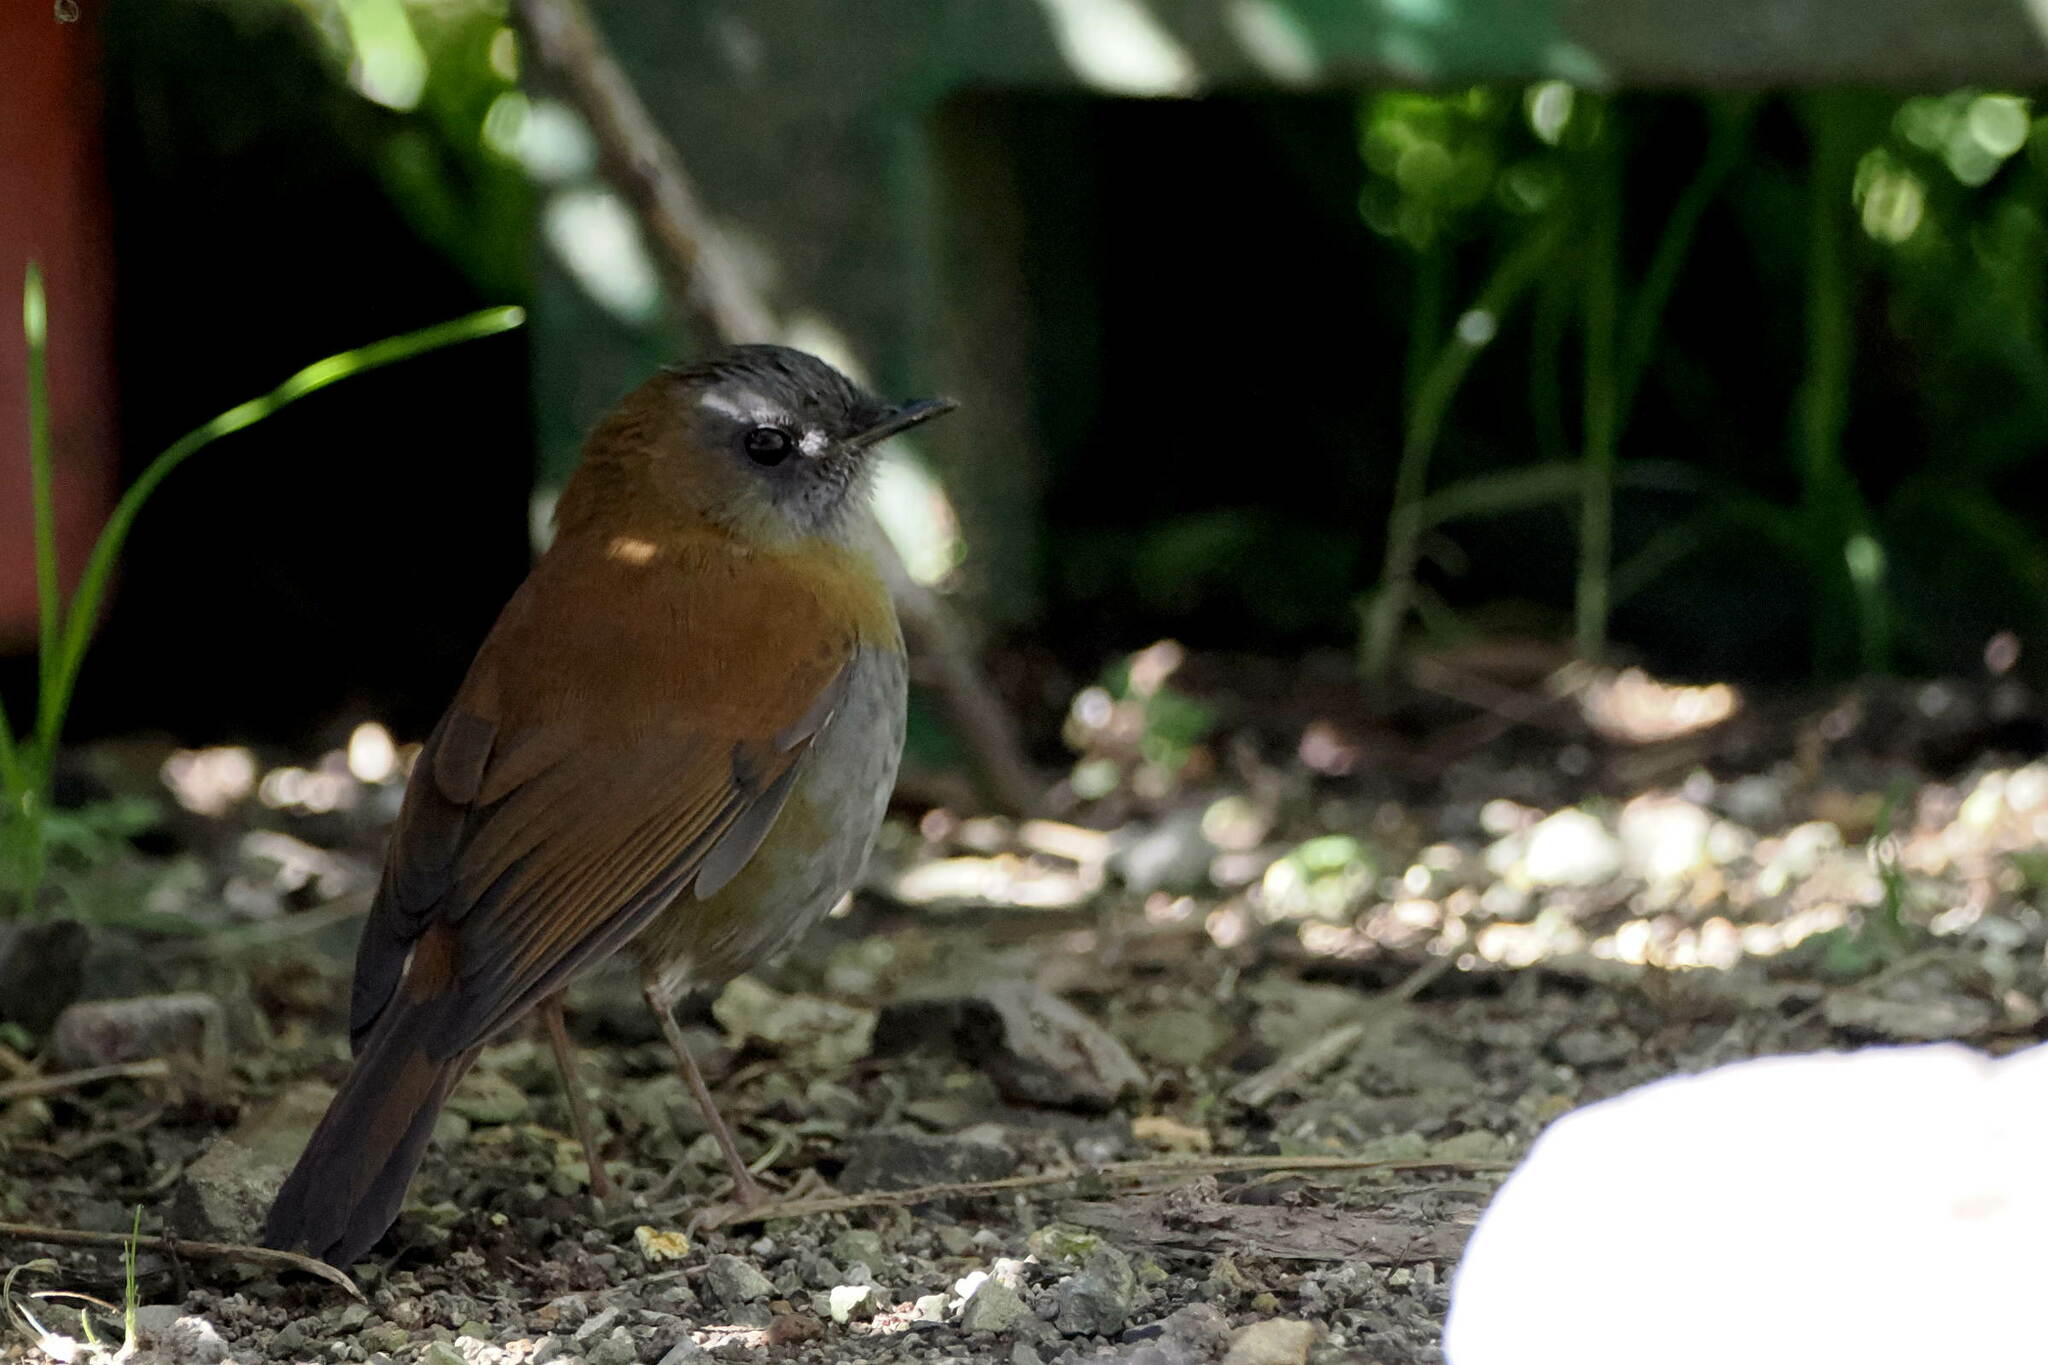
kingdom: Animalia
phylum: Chordata
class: Aves
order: Passeriformes
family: Turdidae
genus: Catharus
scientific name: Catharus gracilirostris
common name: Black-billed nightingale-thrush
